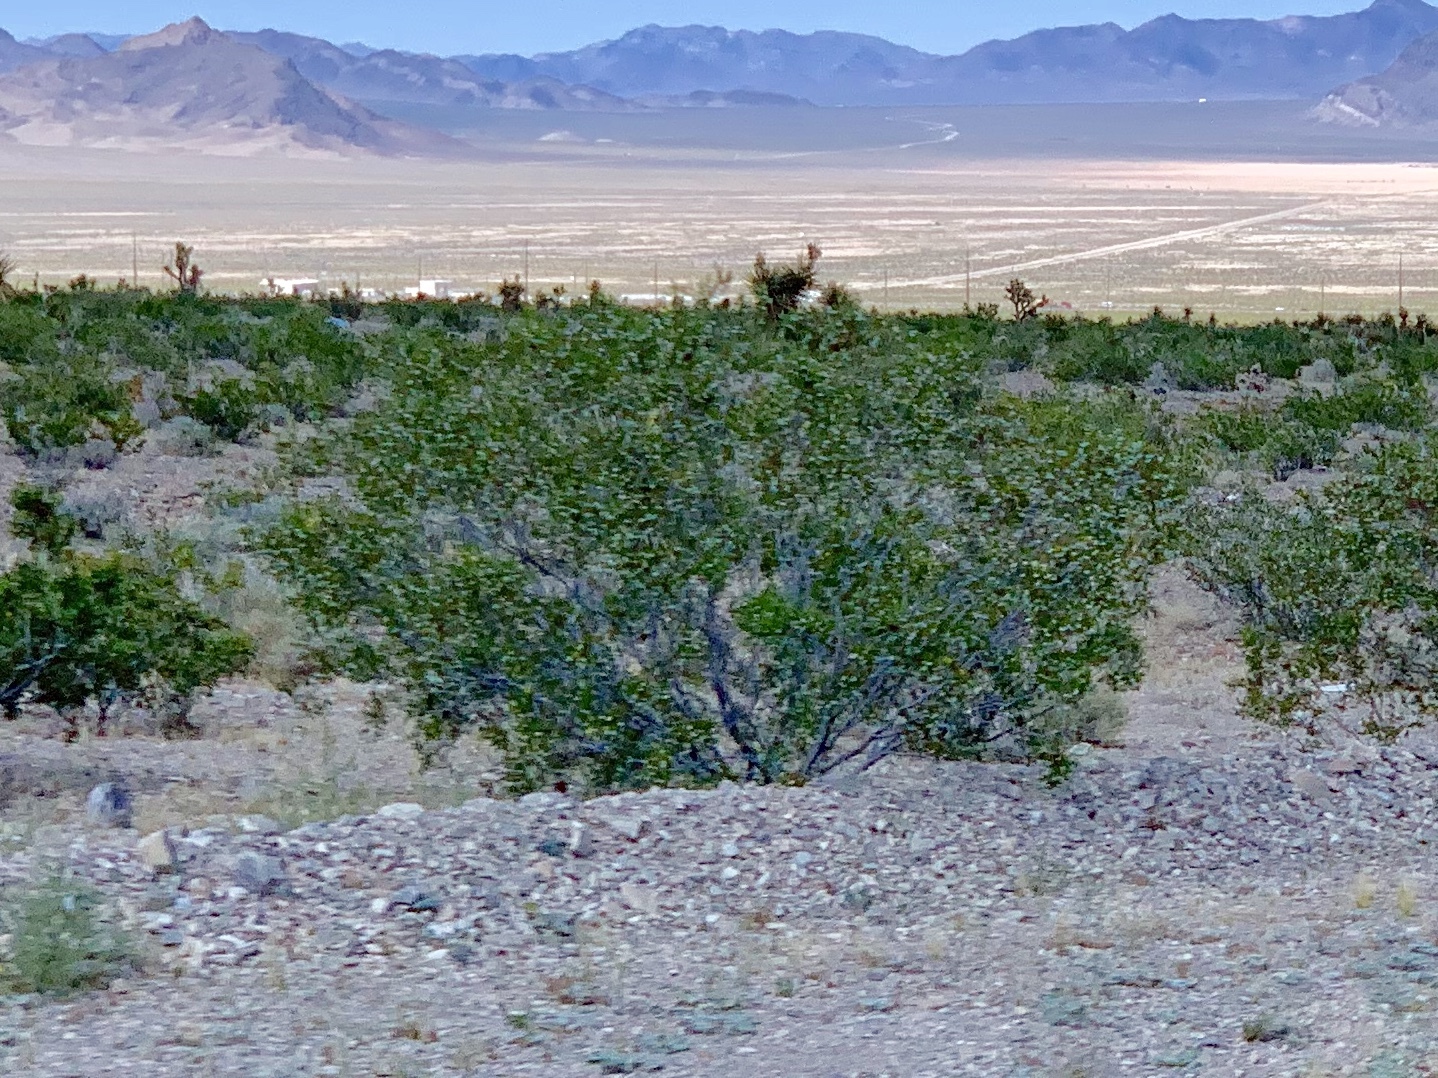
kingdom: Plantae
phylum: Tracheophyta
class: Magnoliopsida
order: Zygophyllales
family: Zygophyllaceae
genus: Larrea
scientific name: Larrea tridentata
